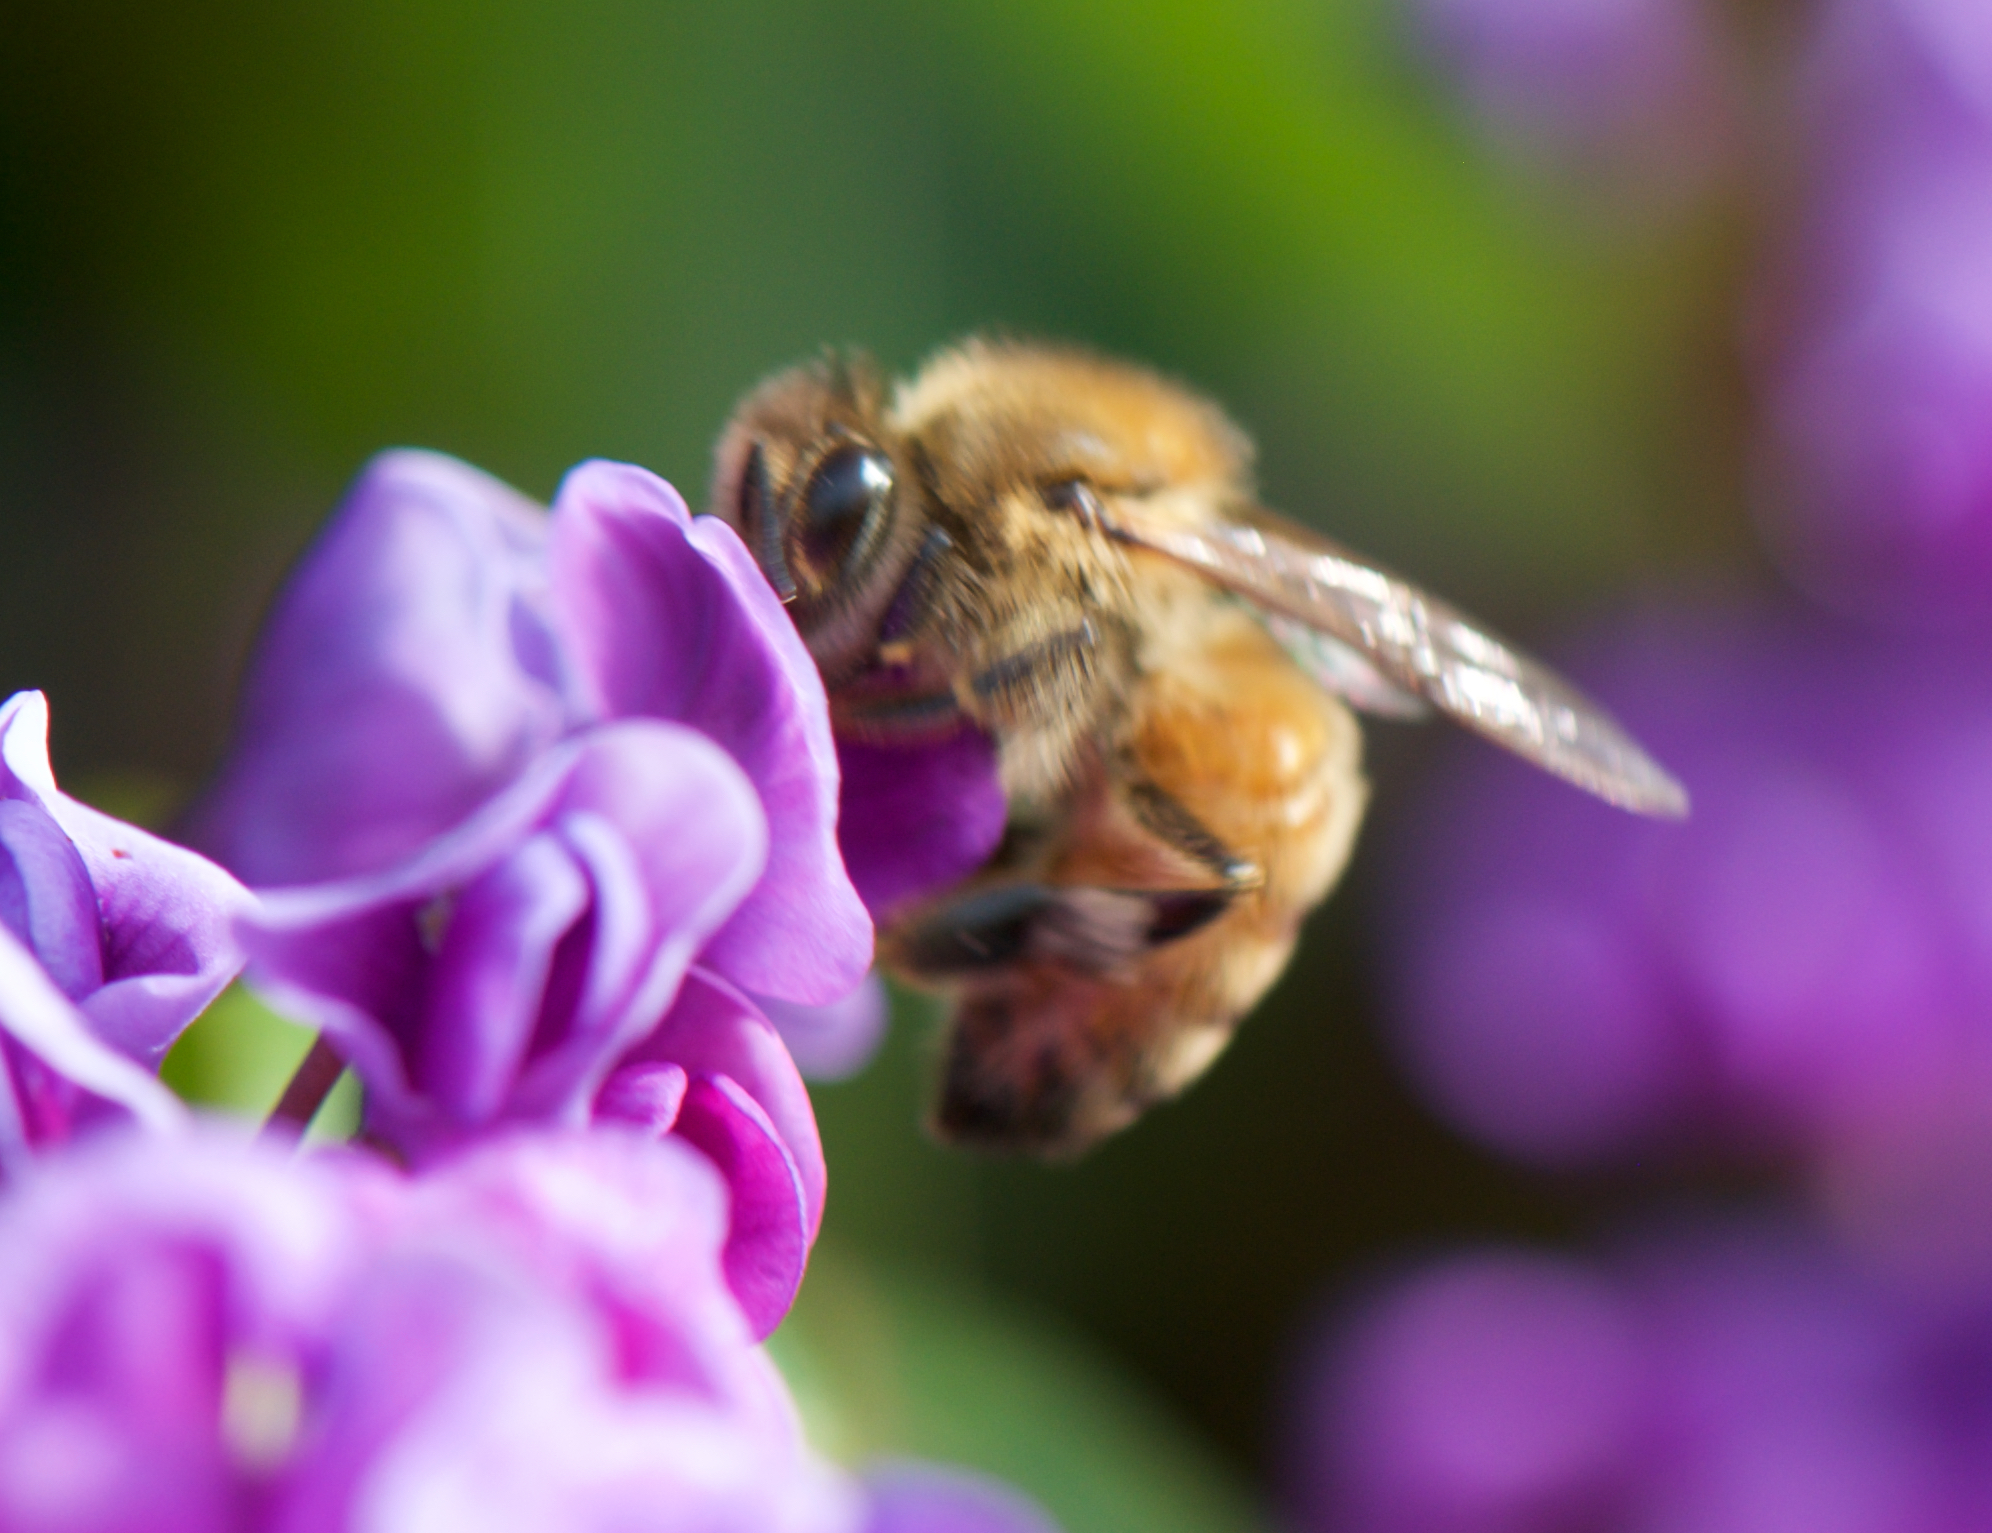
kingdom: Animalia
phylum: Arthropoda
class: Insecta
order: Hymenoptera
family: Apidae
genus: Apis
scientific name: Apis mellifera
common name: Honey bee
